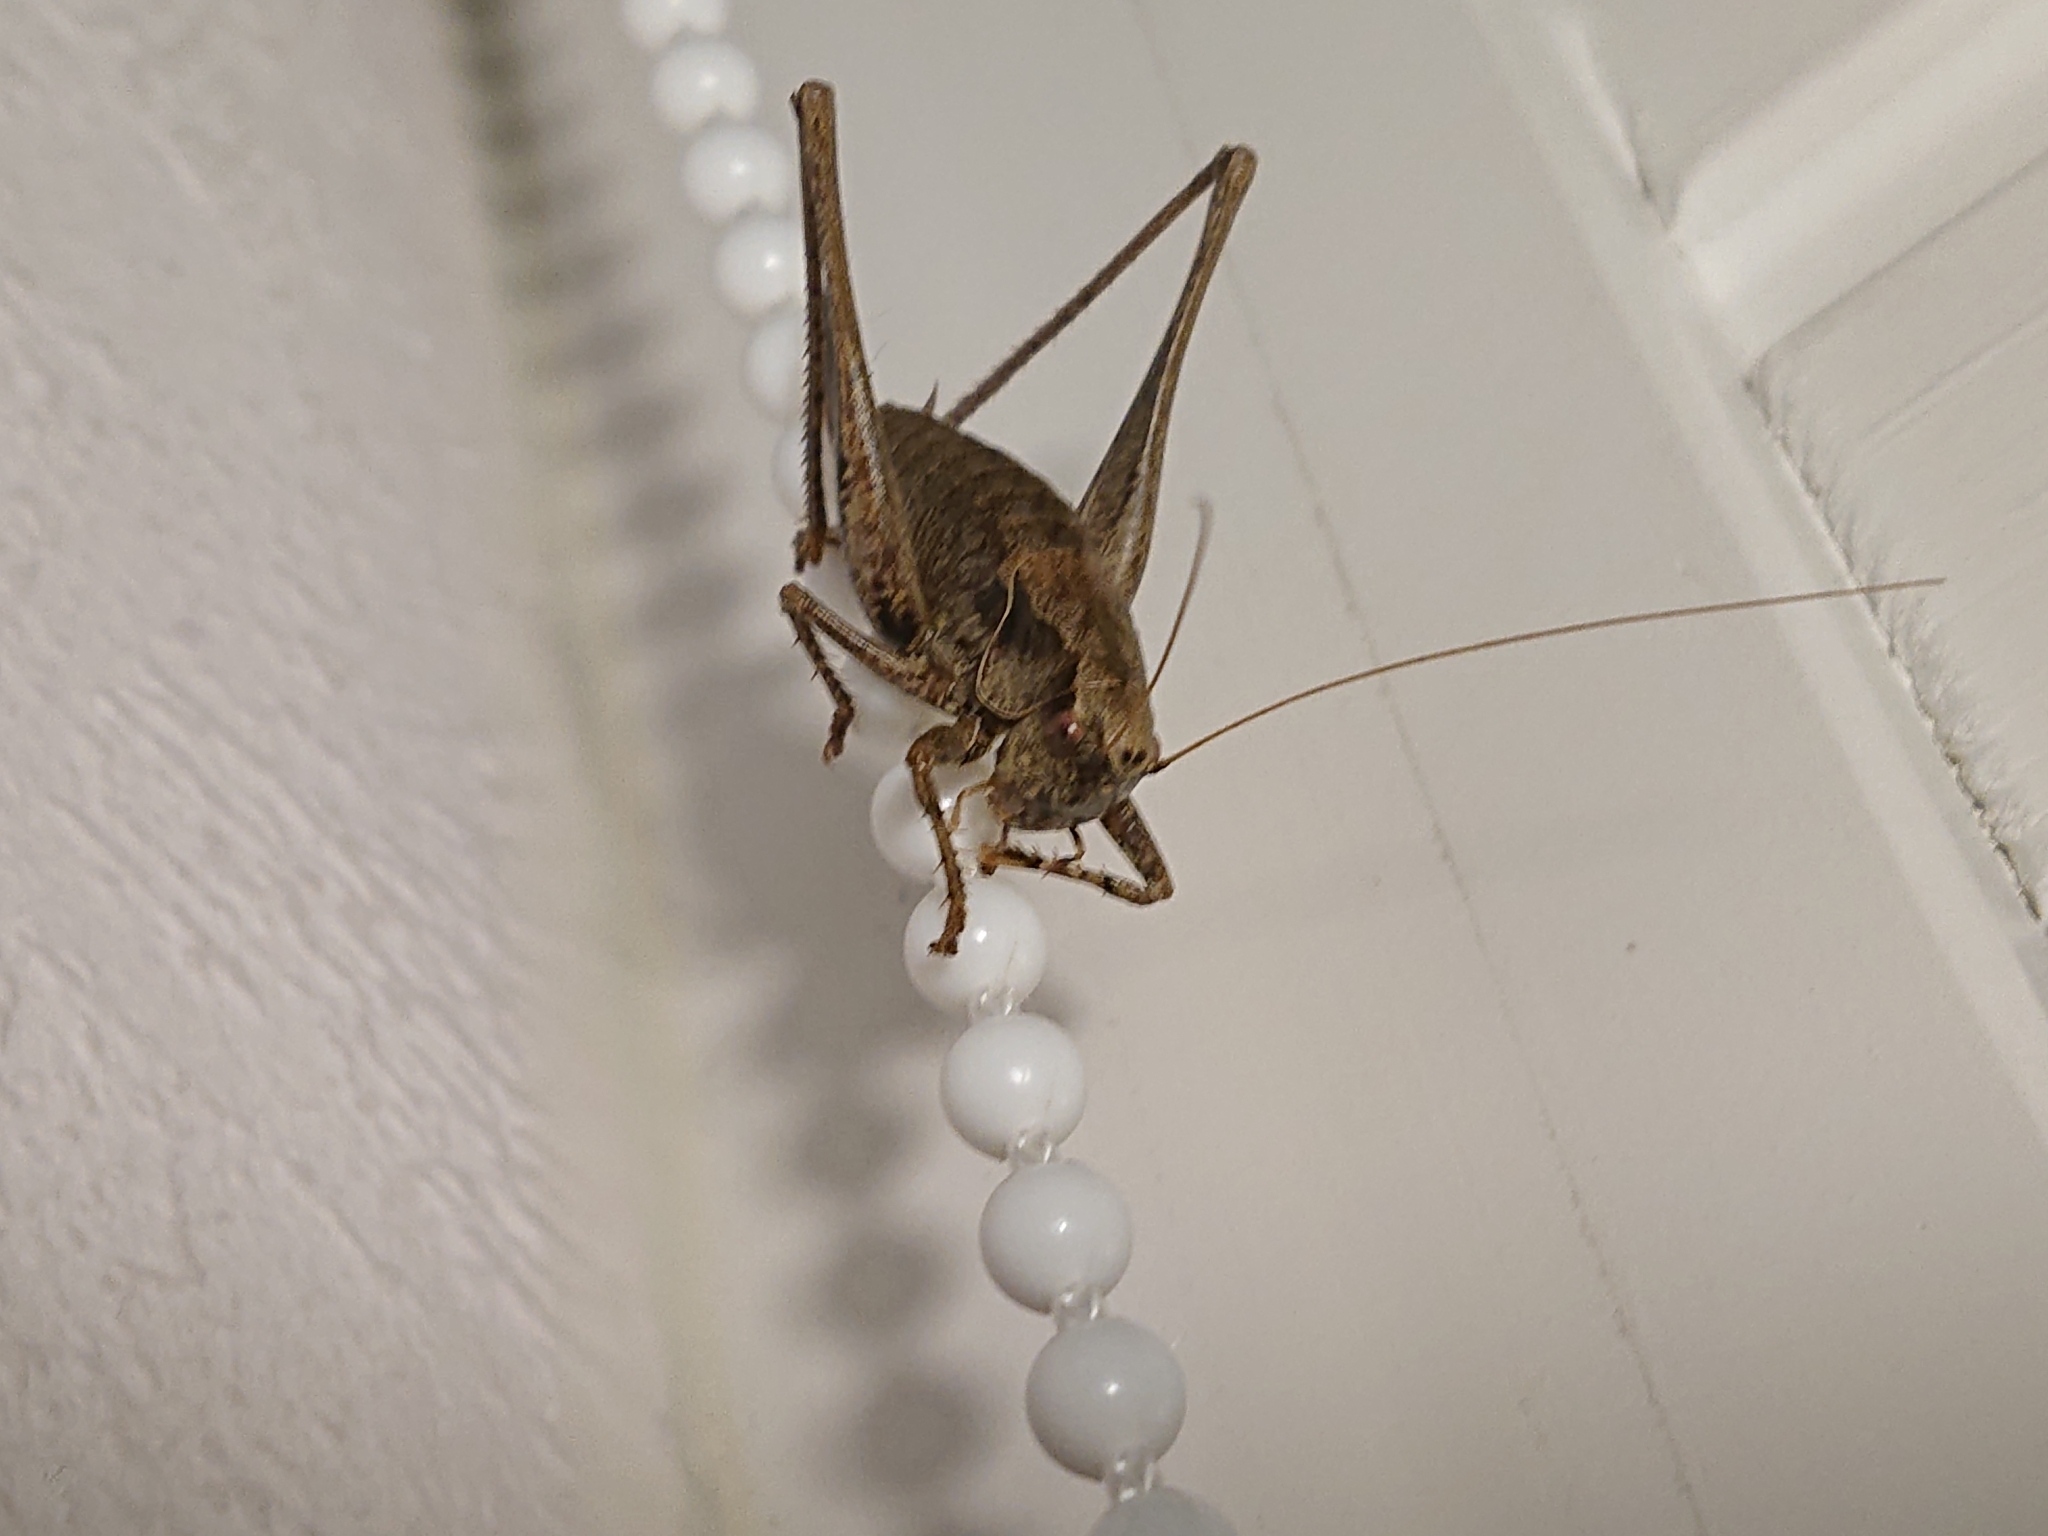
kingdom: Animalia
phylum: Arthropoda
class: Insecta
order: Orthoptera
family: Tettigoniidae
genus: Pholidoptera
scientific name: Pholidoptera griseoaptera
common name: Dark bush-cricket
